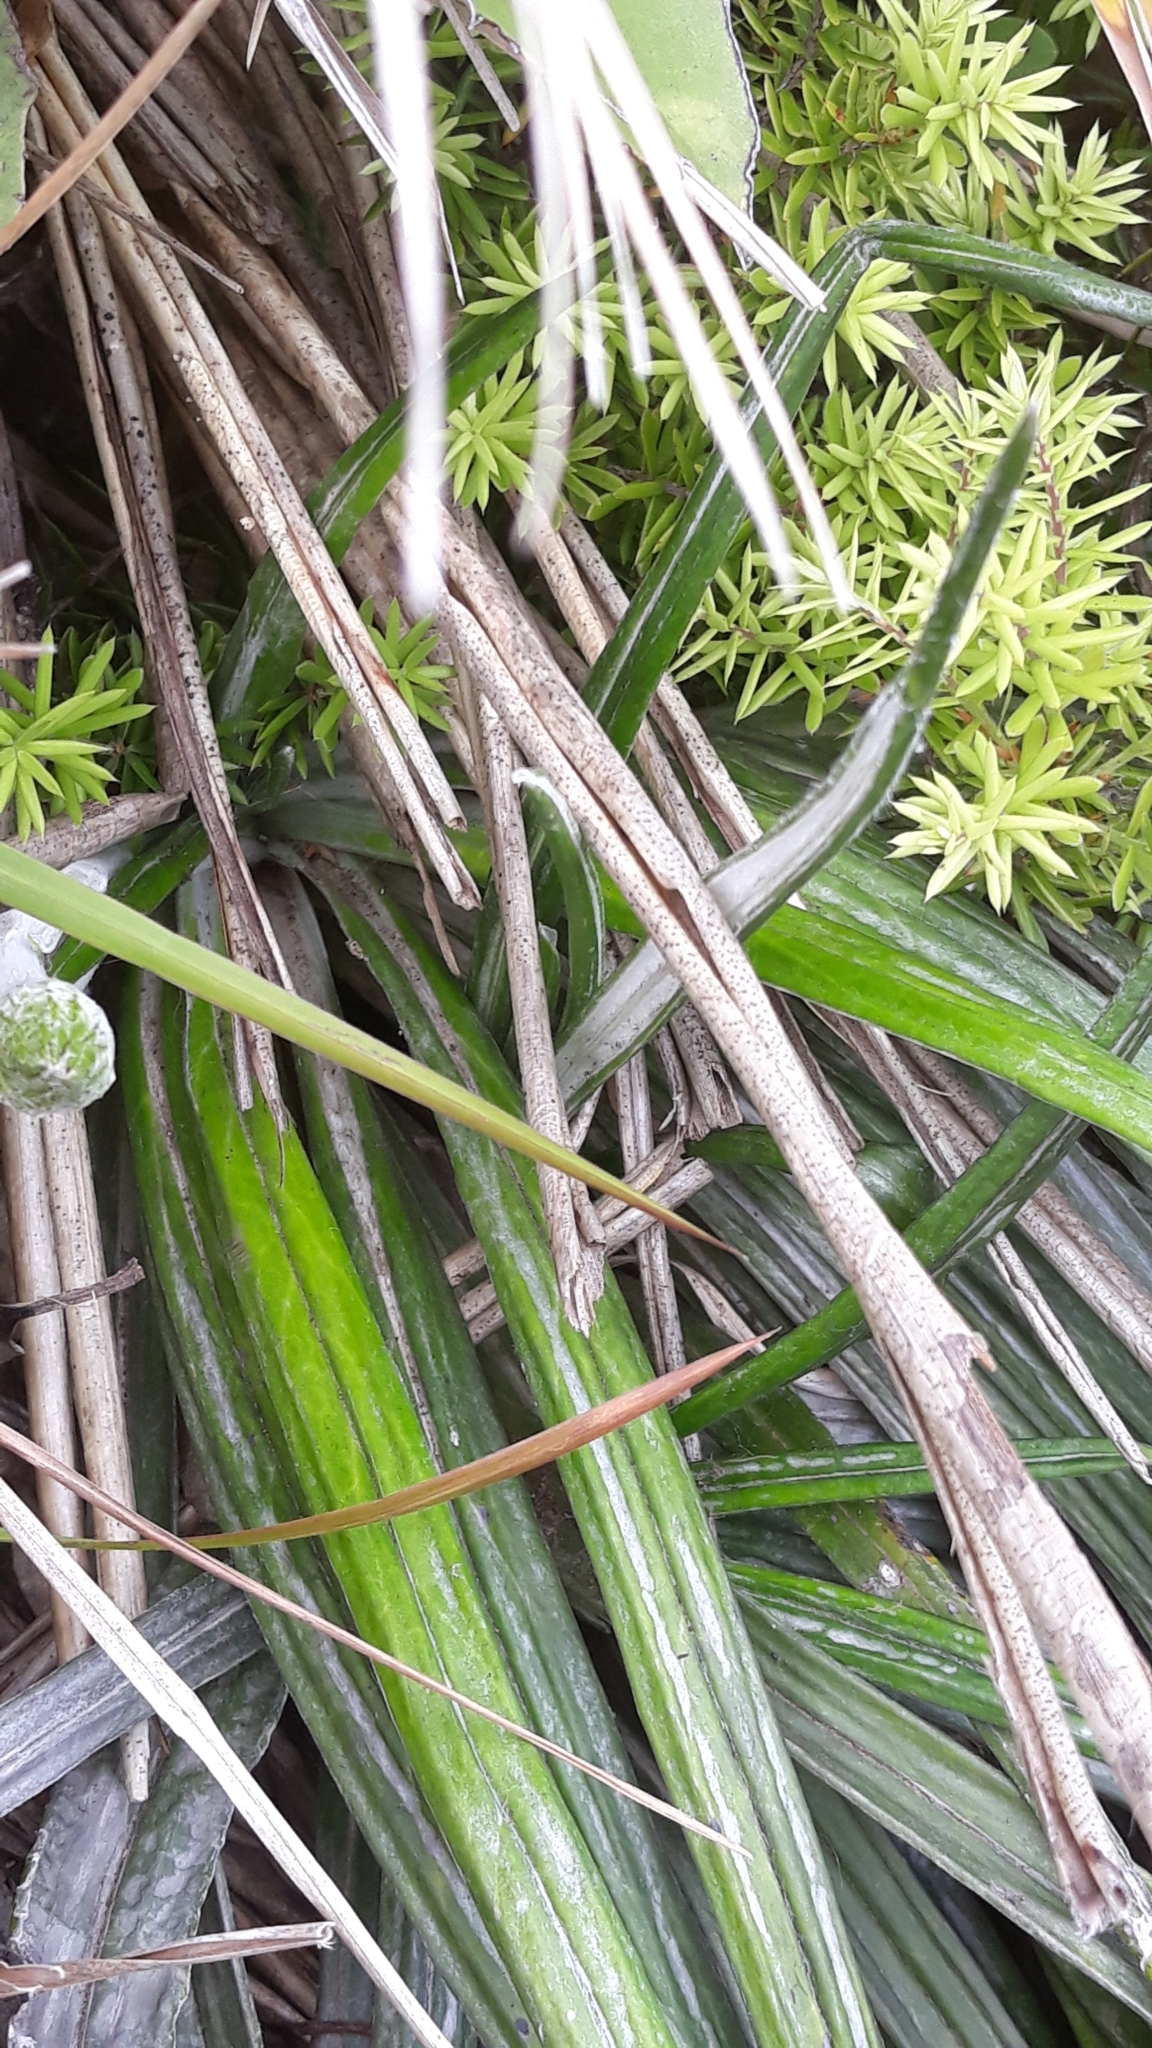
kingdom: Plantae
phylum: Tracheophyta
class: Magnoliopsida
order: Asterales
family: Asteraceae
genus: Celmisia
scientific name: Celmisia graminifolia
